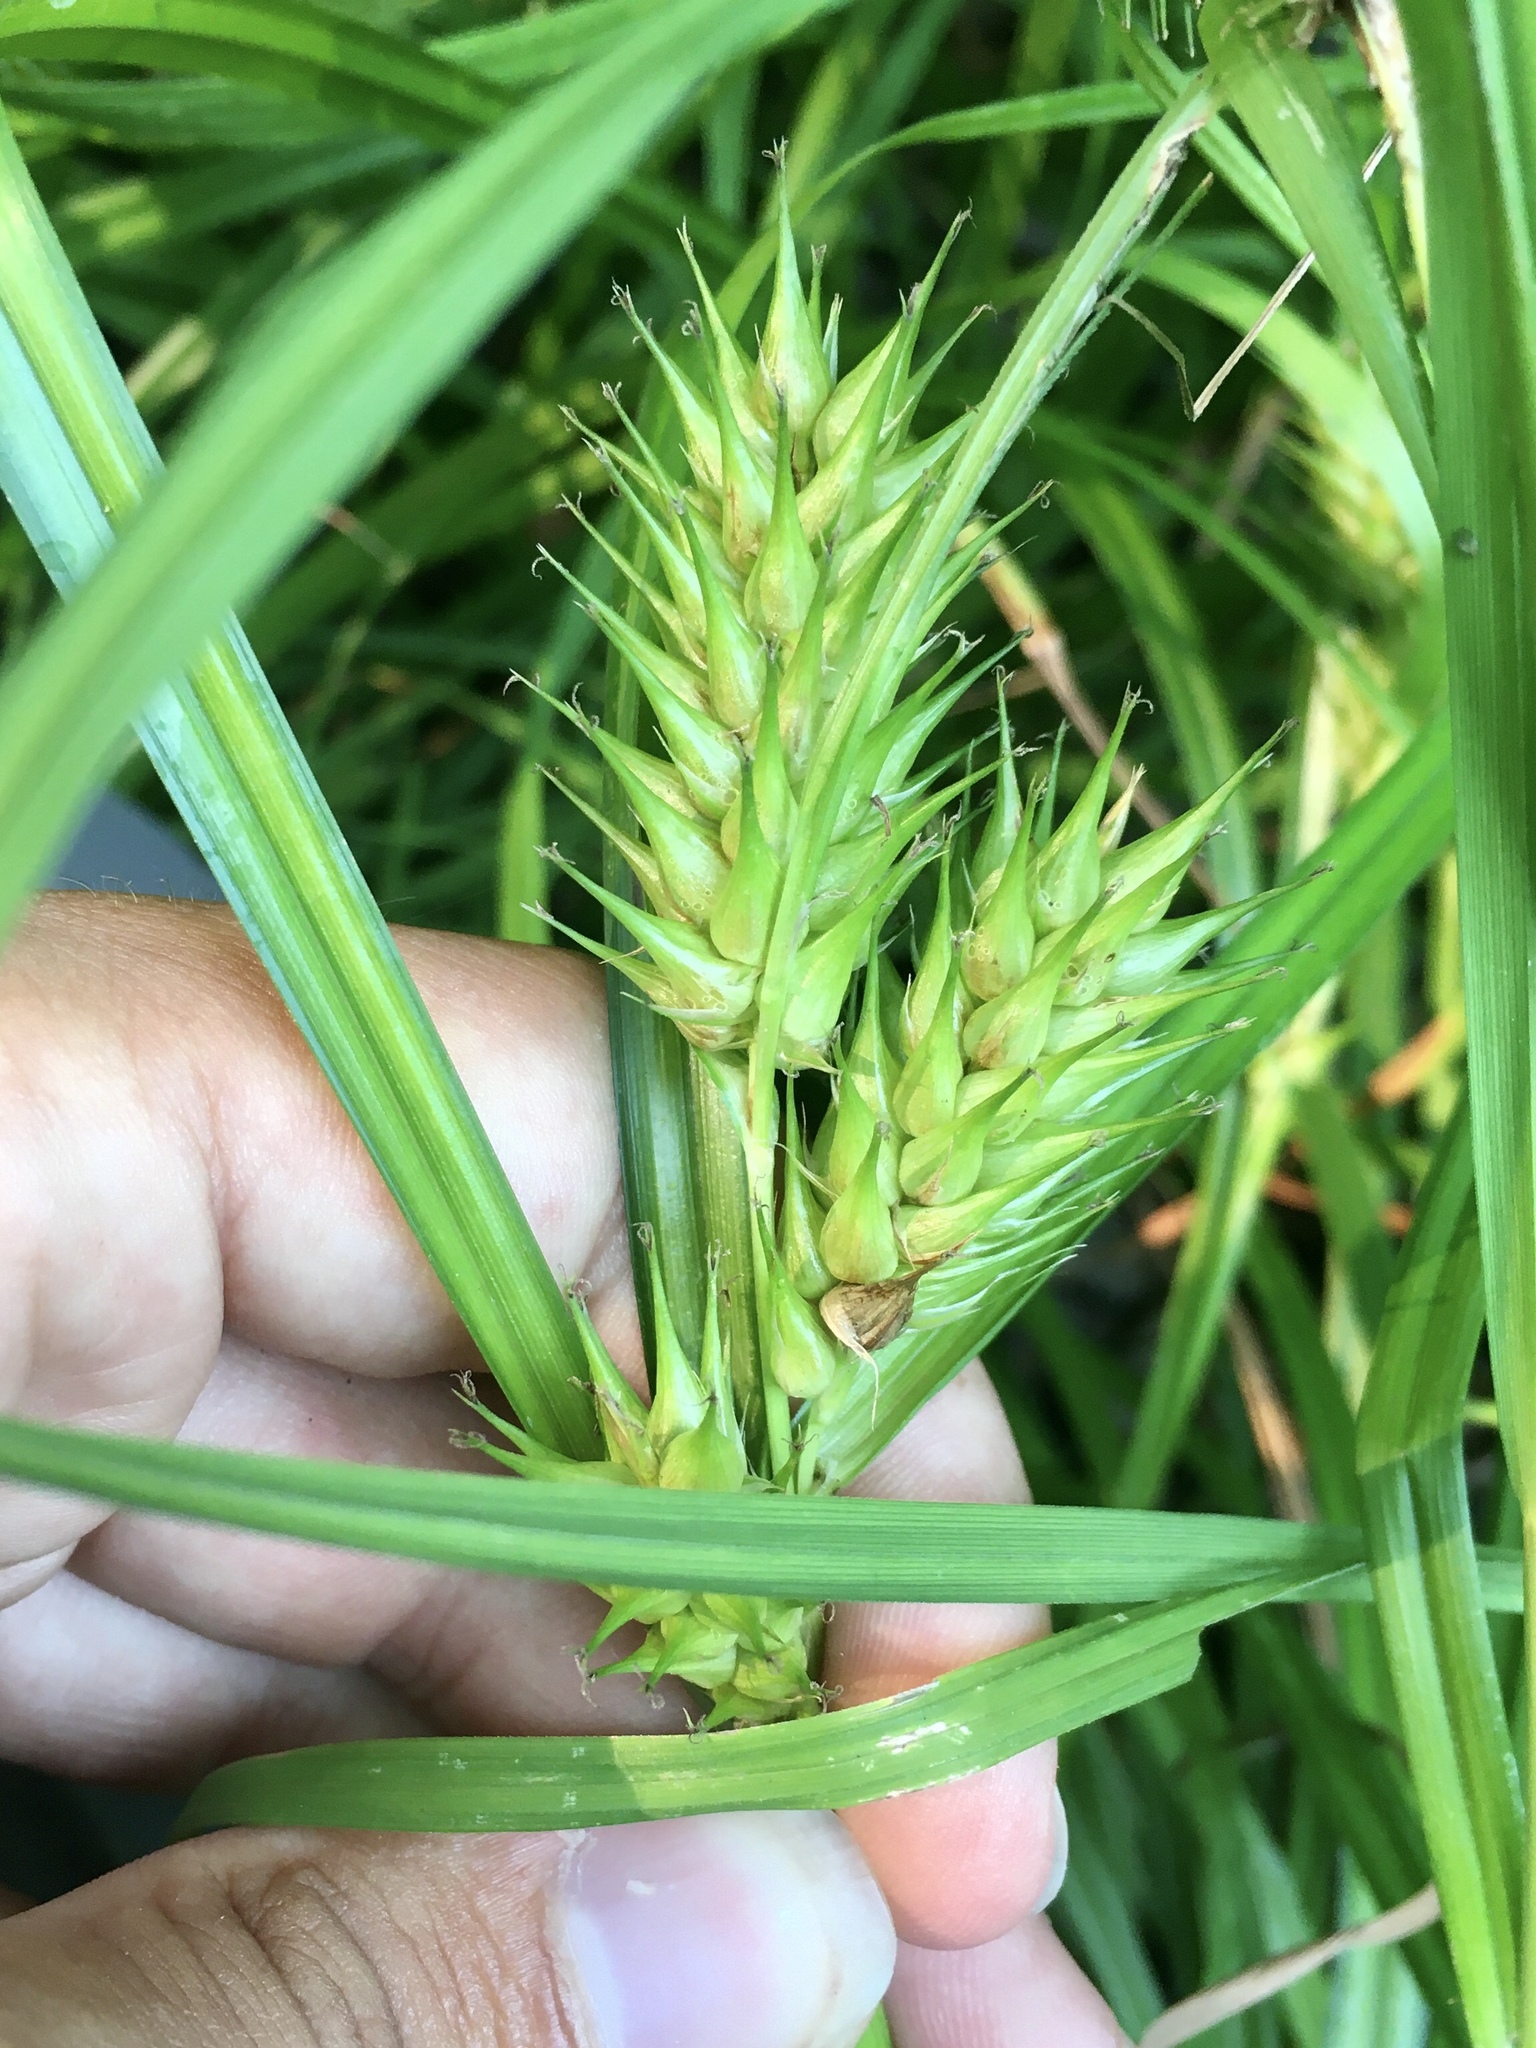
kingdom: Plantae
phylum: Tracheophyta
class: Liliopsida
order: Poales
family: Cyperaceae
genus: Carex
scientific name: Carex lupulina
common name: Hop sedge
